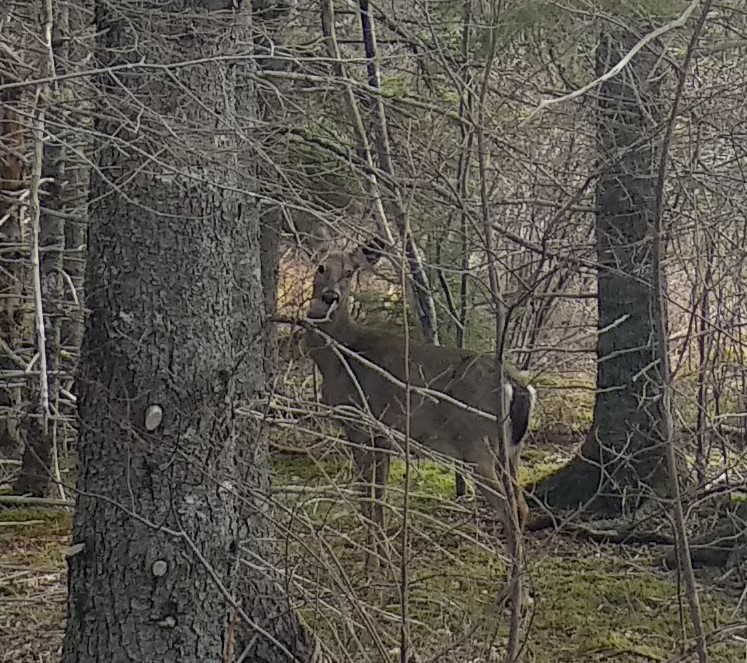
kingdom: Animalia
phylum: Chordata
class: Mammalia
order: Artiodactyla
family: Cervidae
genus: Odocoileus
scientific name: Odocoileus virginianus
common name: White-tailed deer
